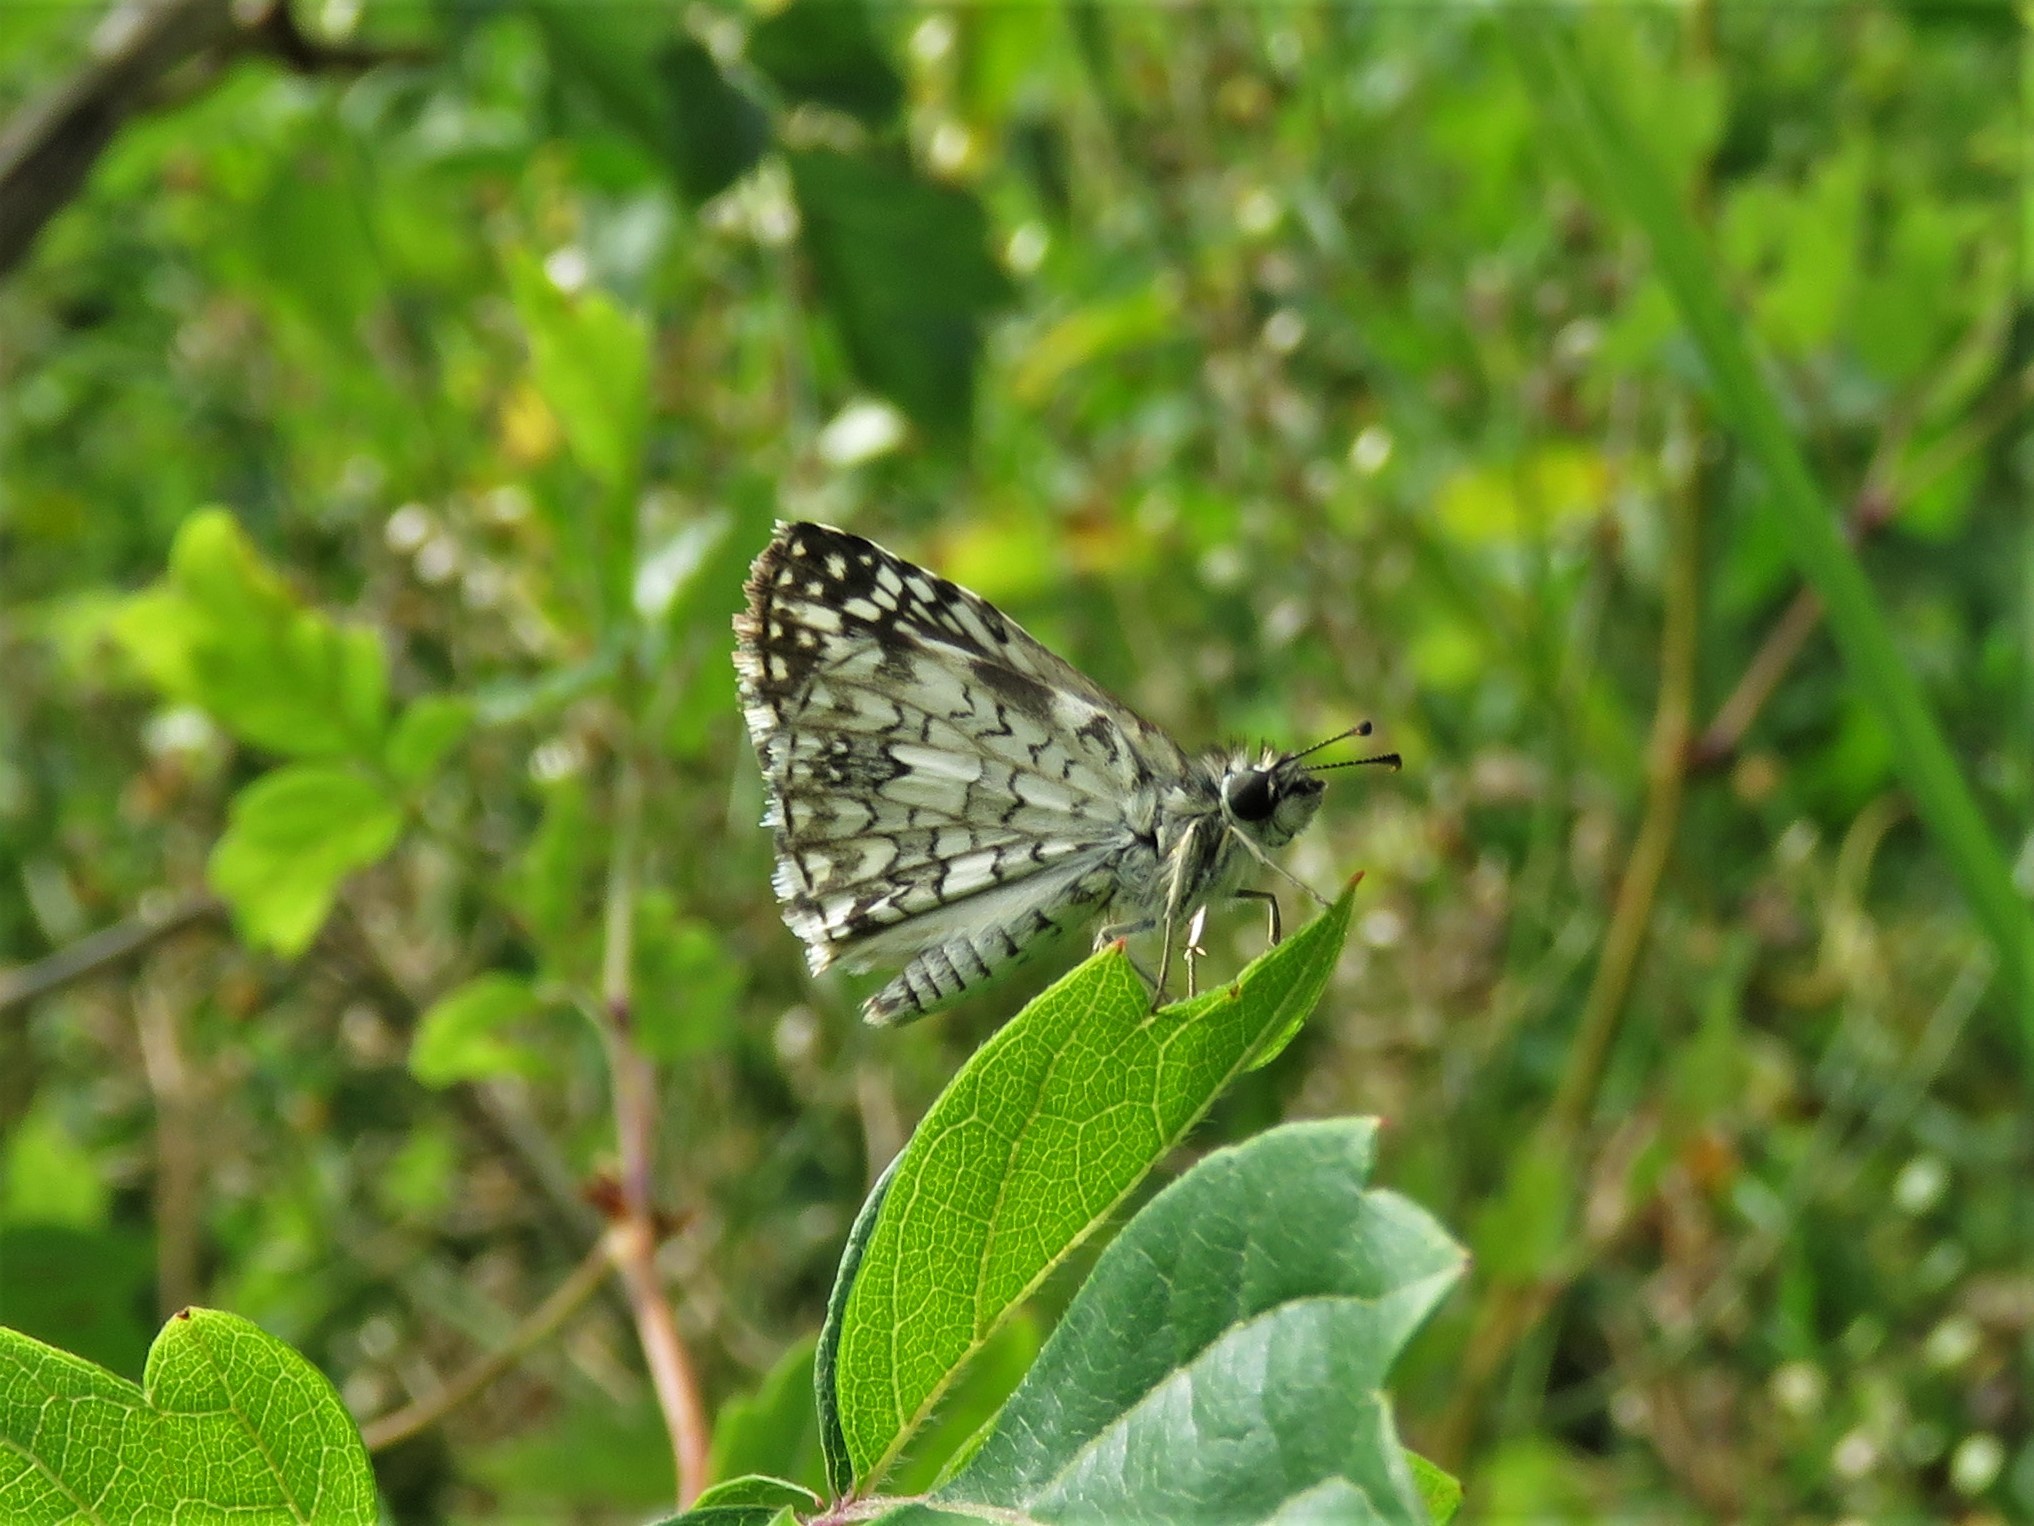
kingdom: Animalia
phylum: Arthropoda
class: Insecta
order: Lepidoptera
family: Hesperiidae
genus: Pyrgus
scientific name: Pyrgus oileus
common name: Tropical checkered-skipper
